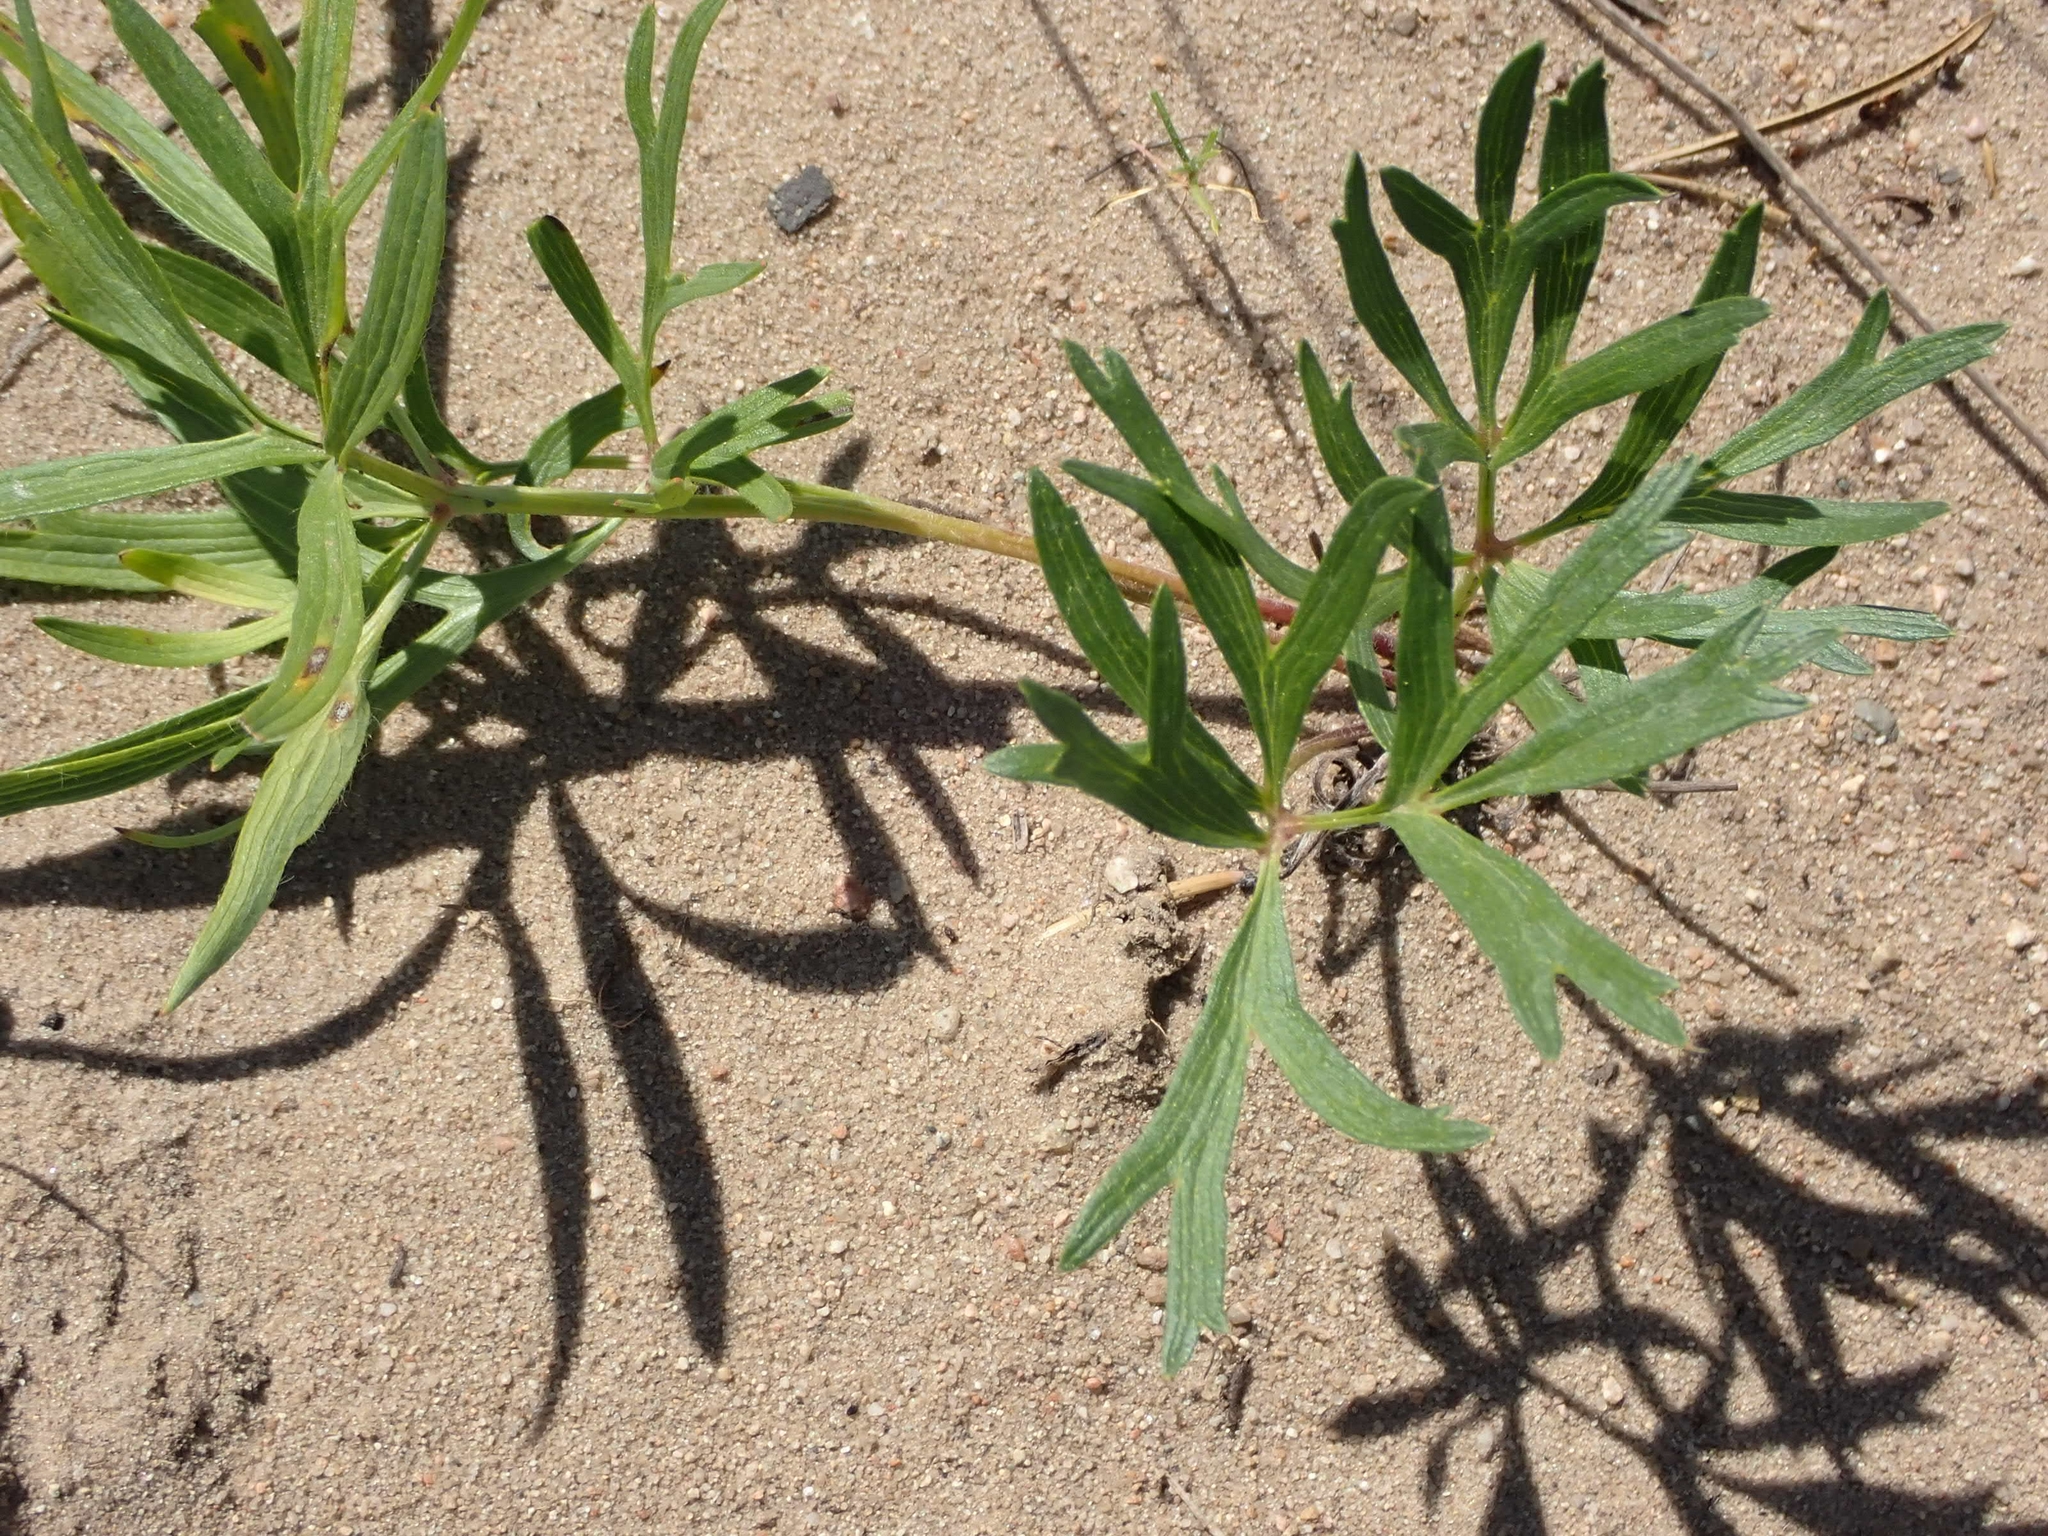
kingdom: Plantae
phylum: Tracheophyta
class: Magnoliopsida
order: Ranunculales
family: Ranunculaceae
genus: Pulsatilla
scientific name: Pulsatilla nuttalliana
